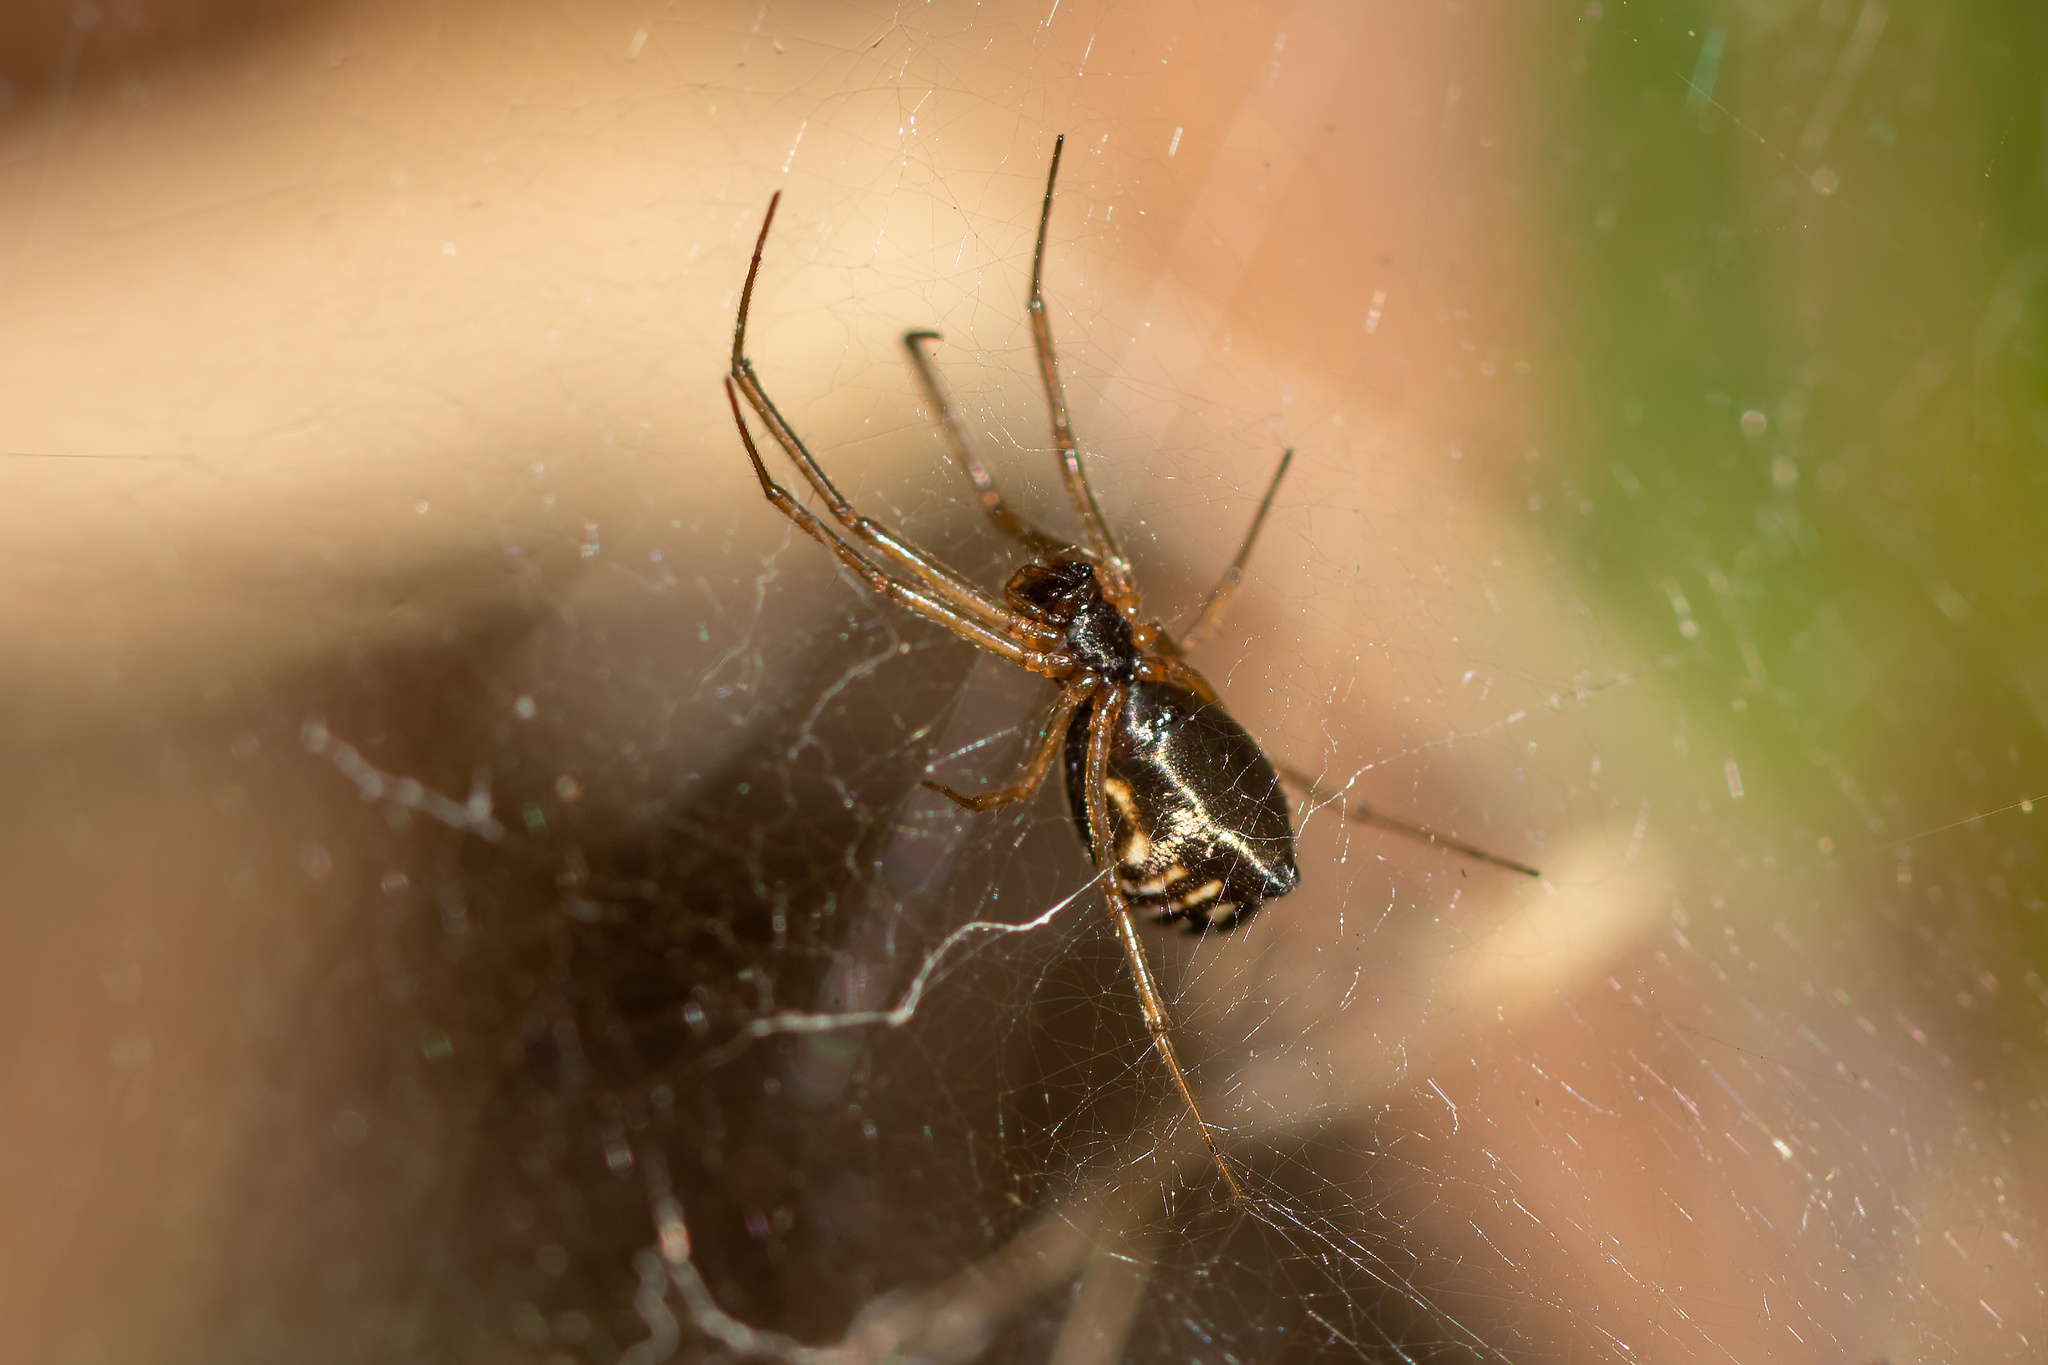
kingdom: Animalia
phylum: Arthropoda
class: Arachnida
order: Araneae
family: Linyphiidae
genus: Frontinella
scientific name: Frontinella pyramitela
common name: Bowl-and-doily spider
